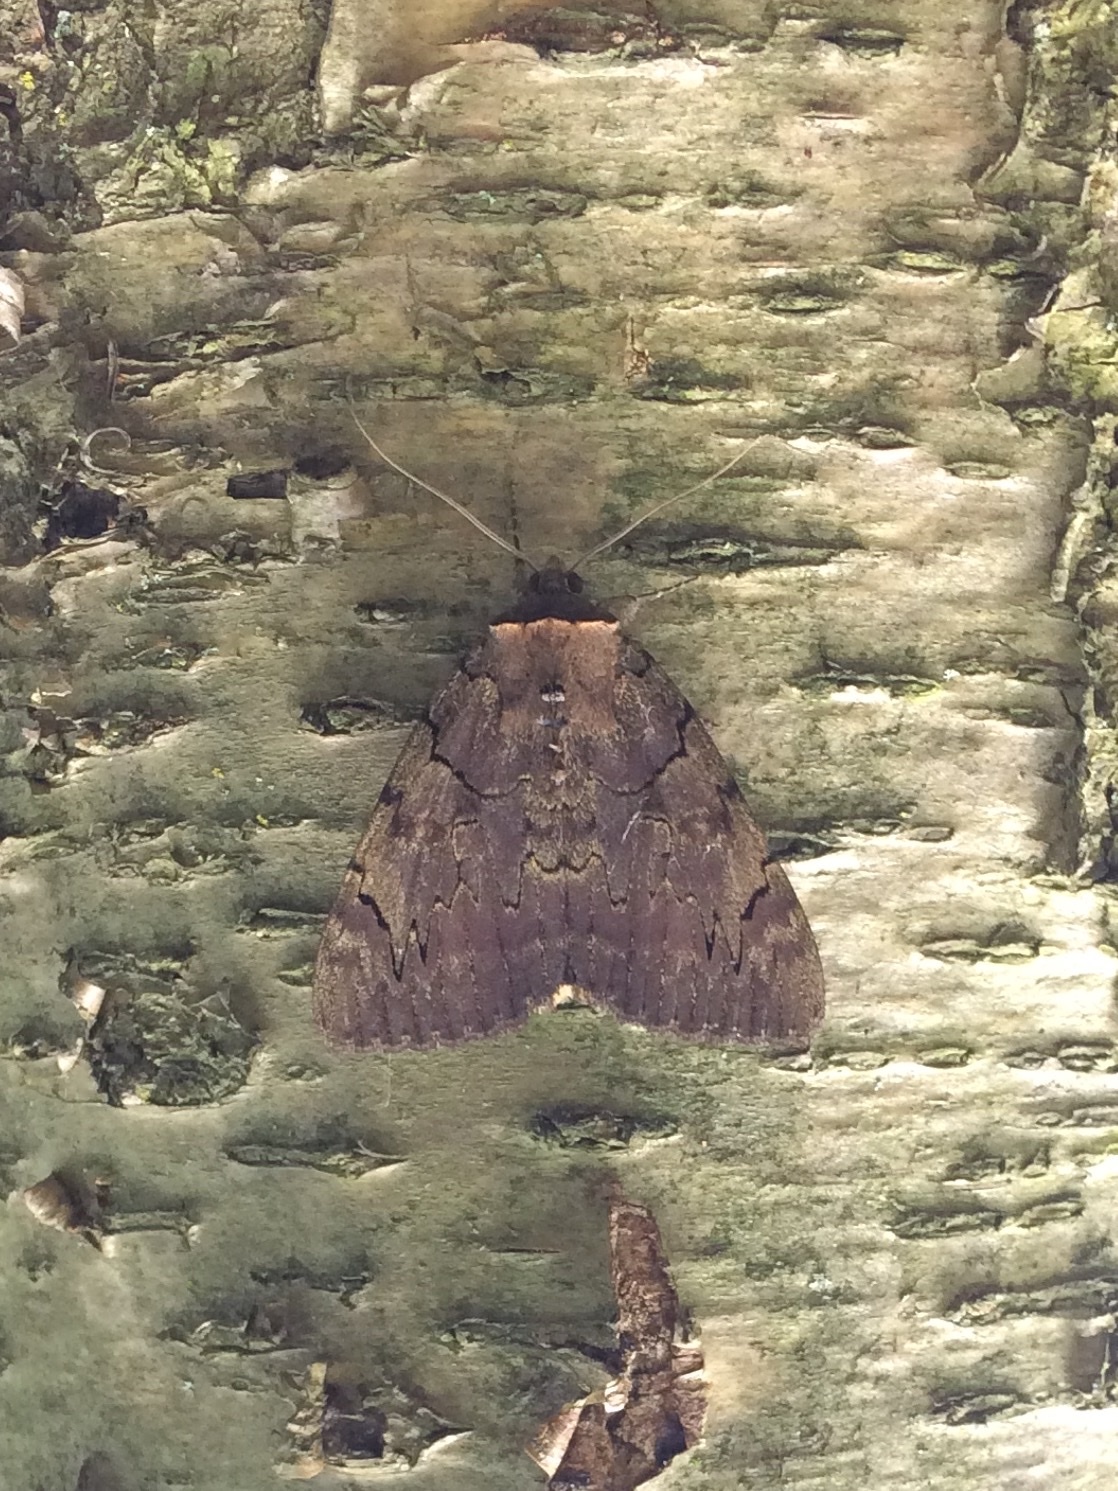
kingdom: Animalia
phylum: Arthropoda
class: Insecta
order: Lepidoptera
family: Erebidae
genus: Catocala
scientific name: Catocala cara
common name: Darling underwing
